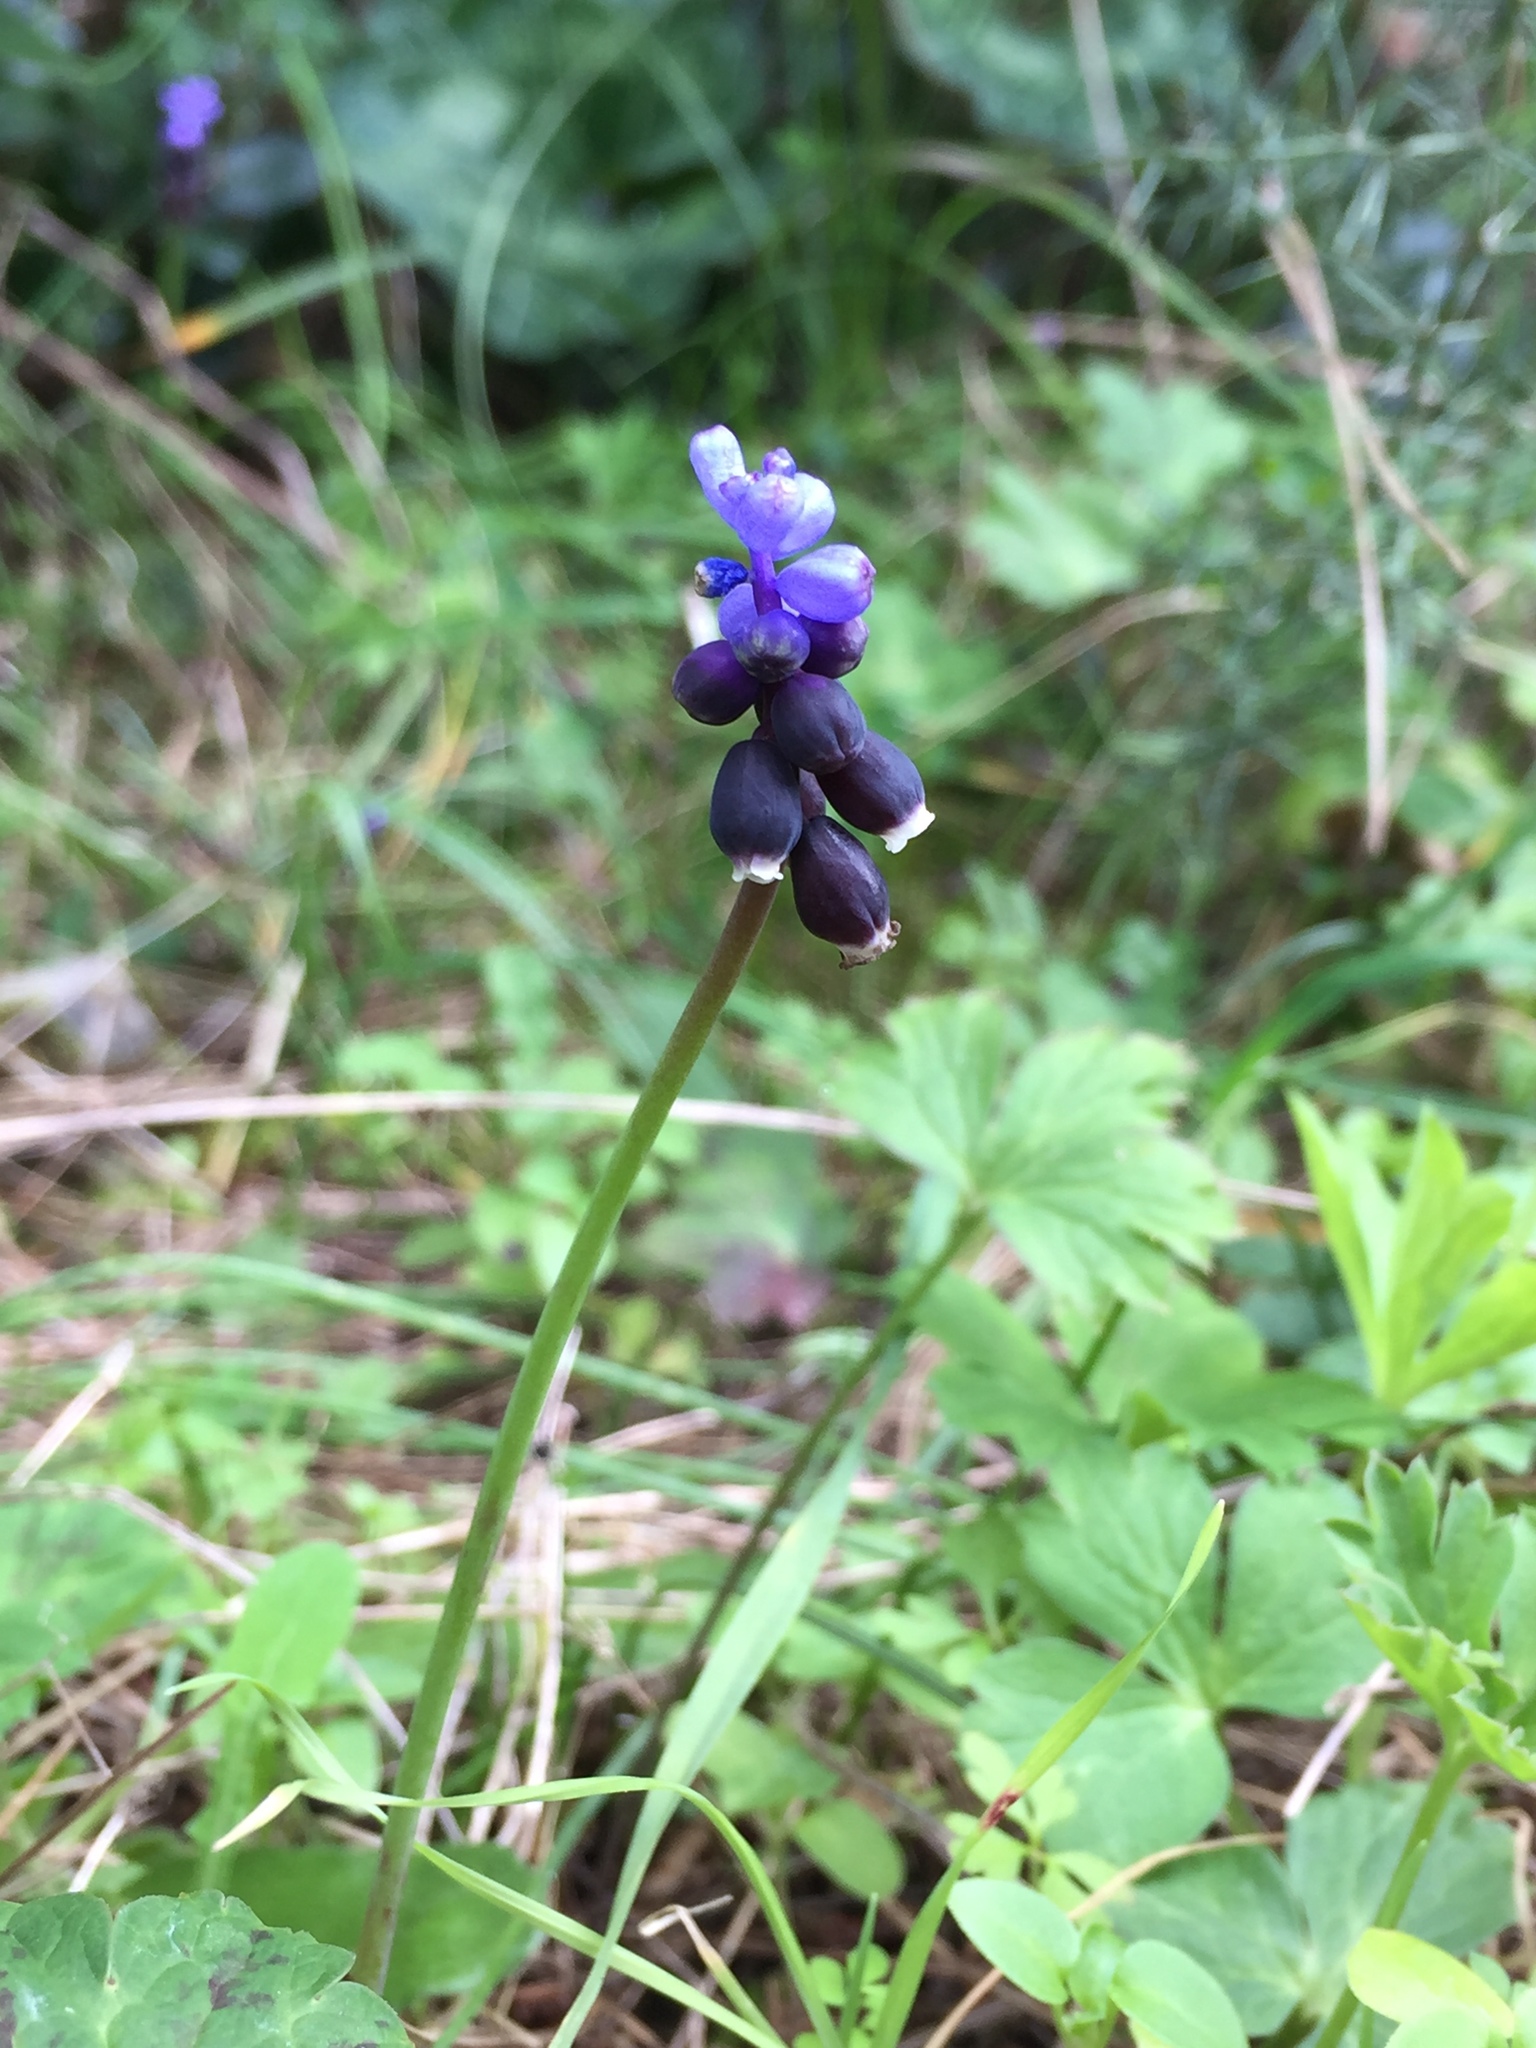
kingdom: Plantae
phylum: Tracheophyta
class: Liliopsida
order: Asparagales
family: Asparagaceae
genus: Muscari
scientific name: Muscari neglectum
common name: Grape-hyacinth
